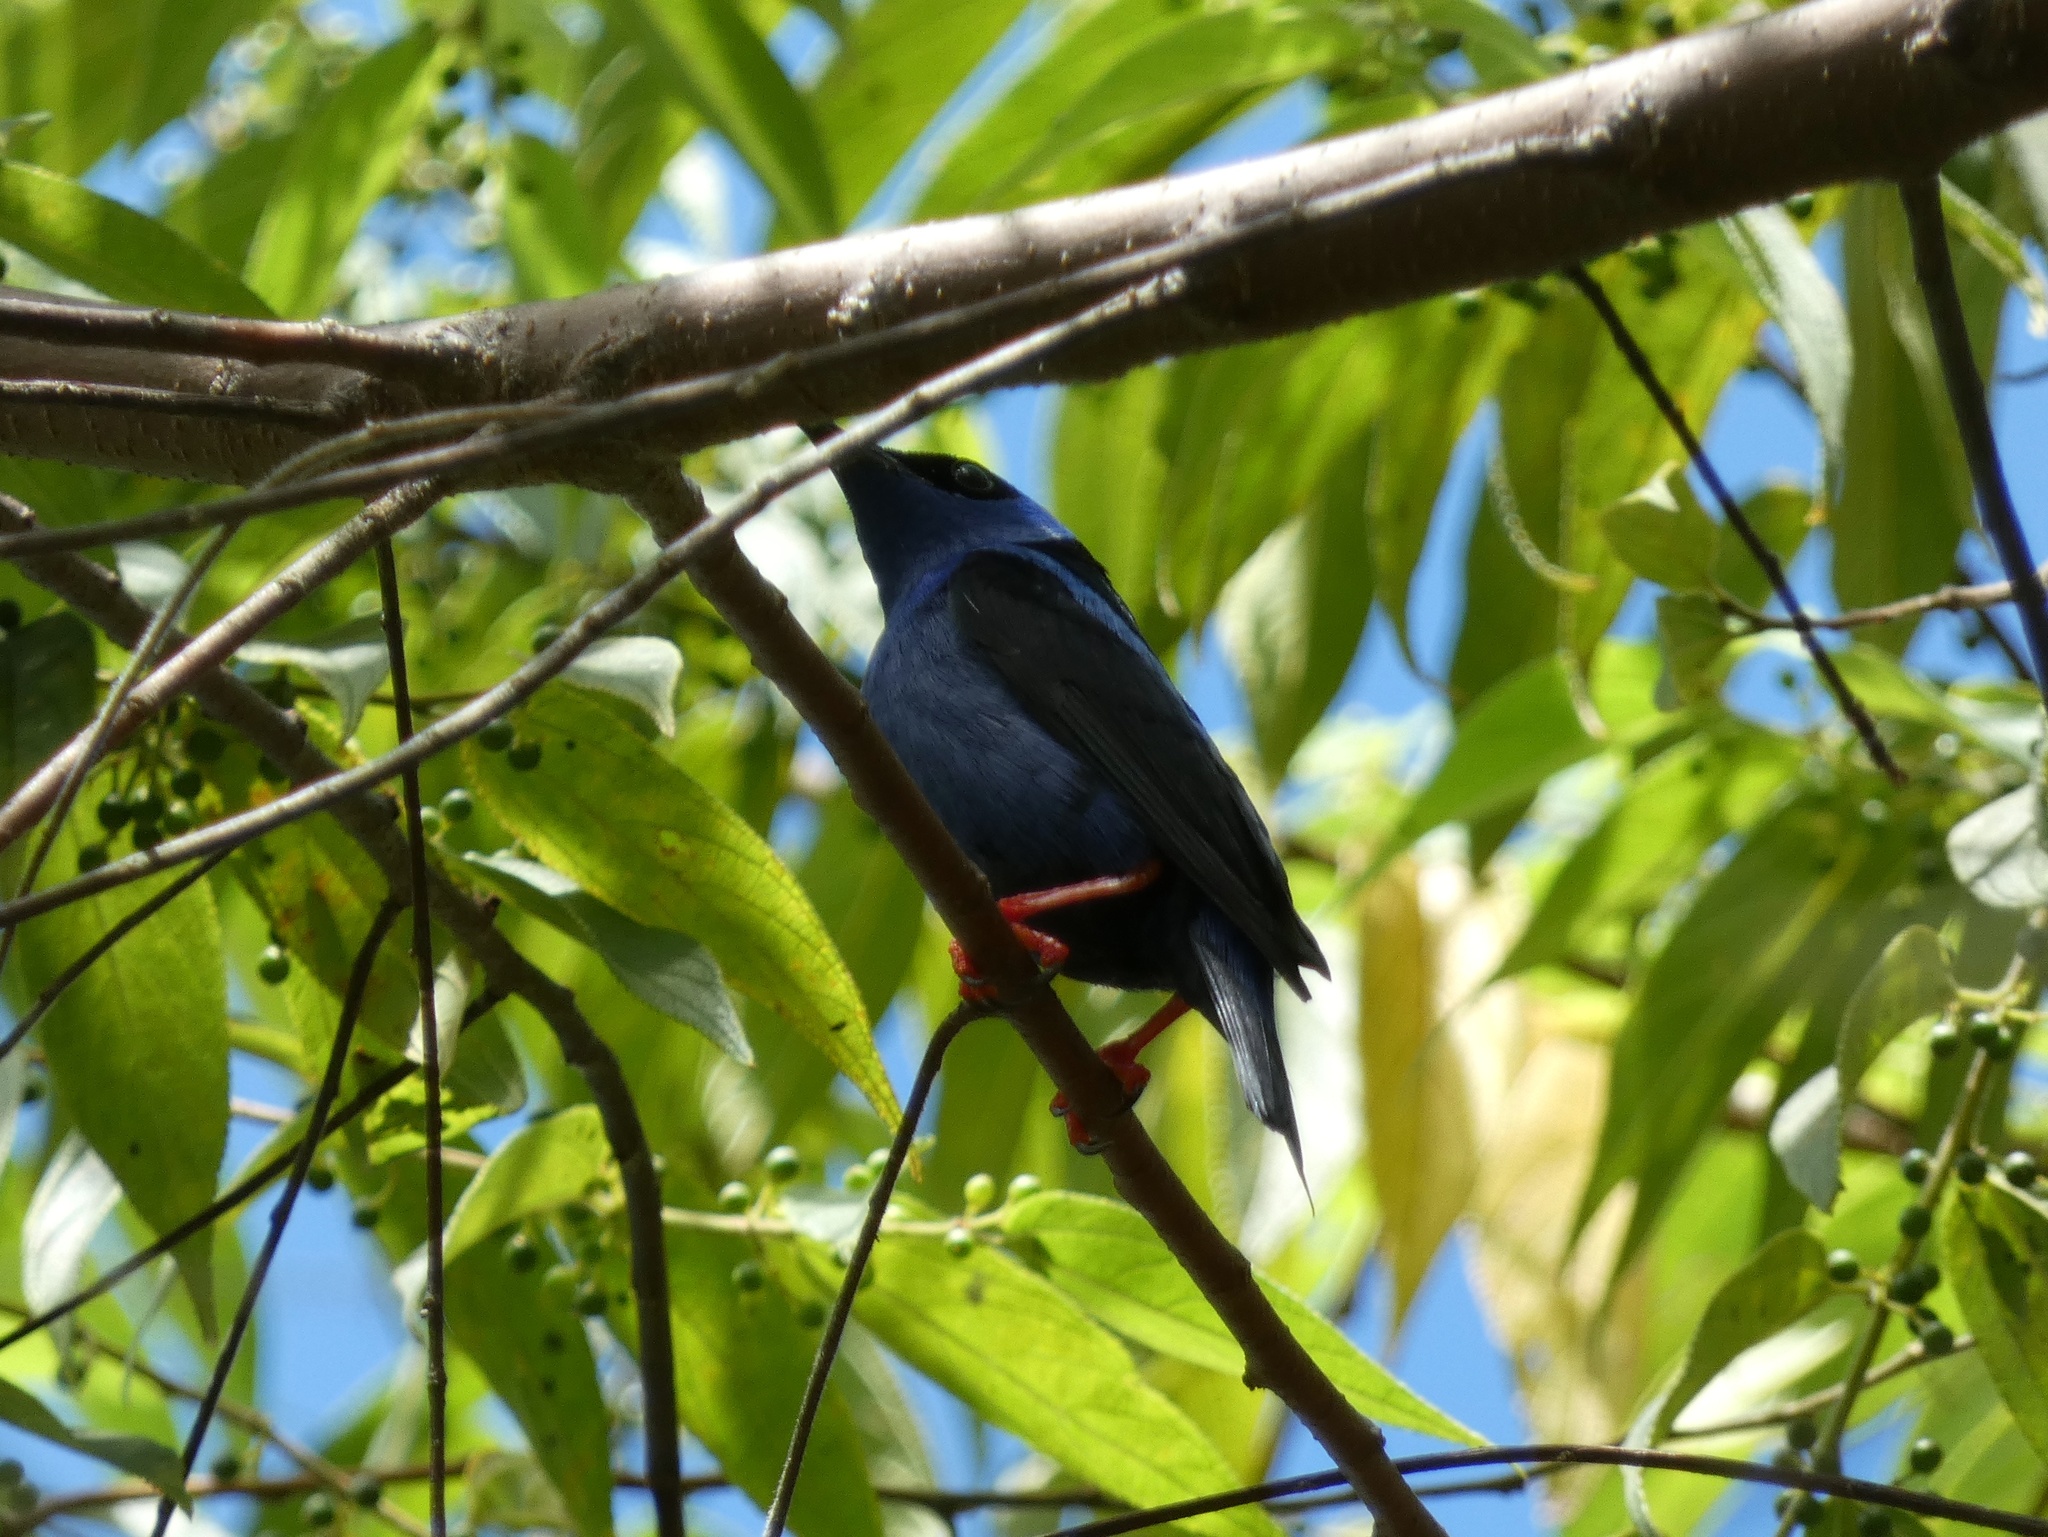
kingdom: Animalia
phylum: Chordata
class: Aves
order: Passeriformes
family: Thraupidae
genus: Cyanerpes
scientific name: Cyanerpes cyaneus
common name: Red-legged honeycreeper
